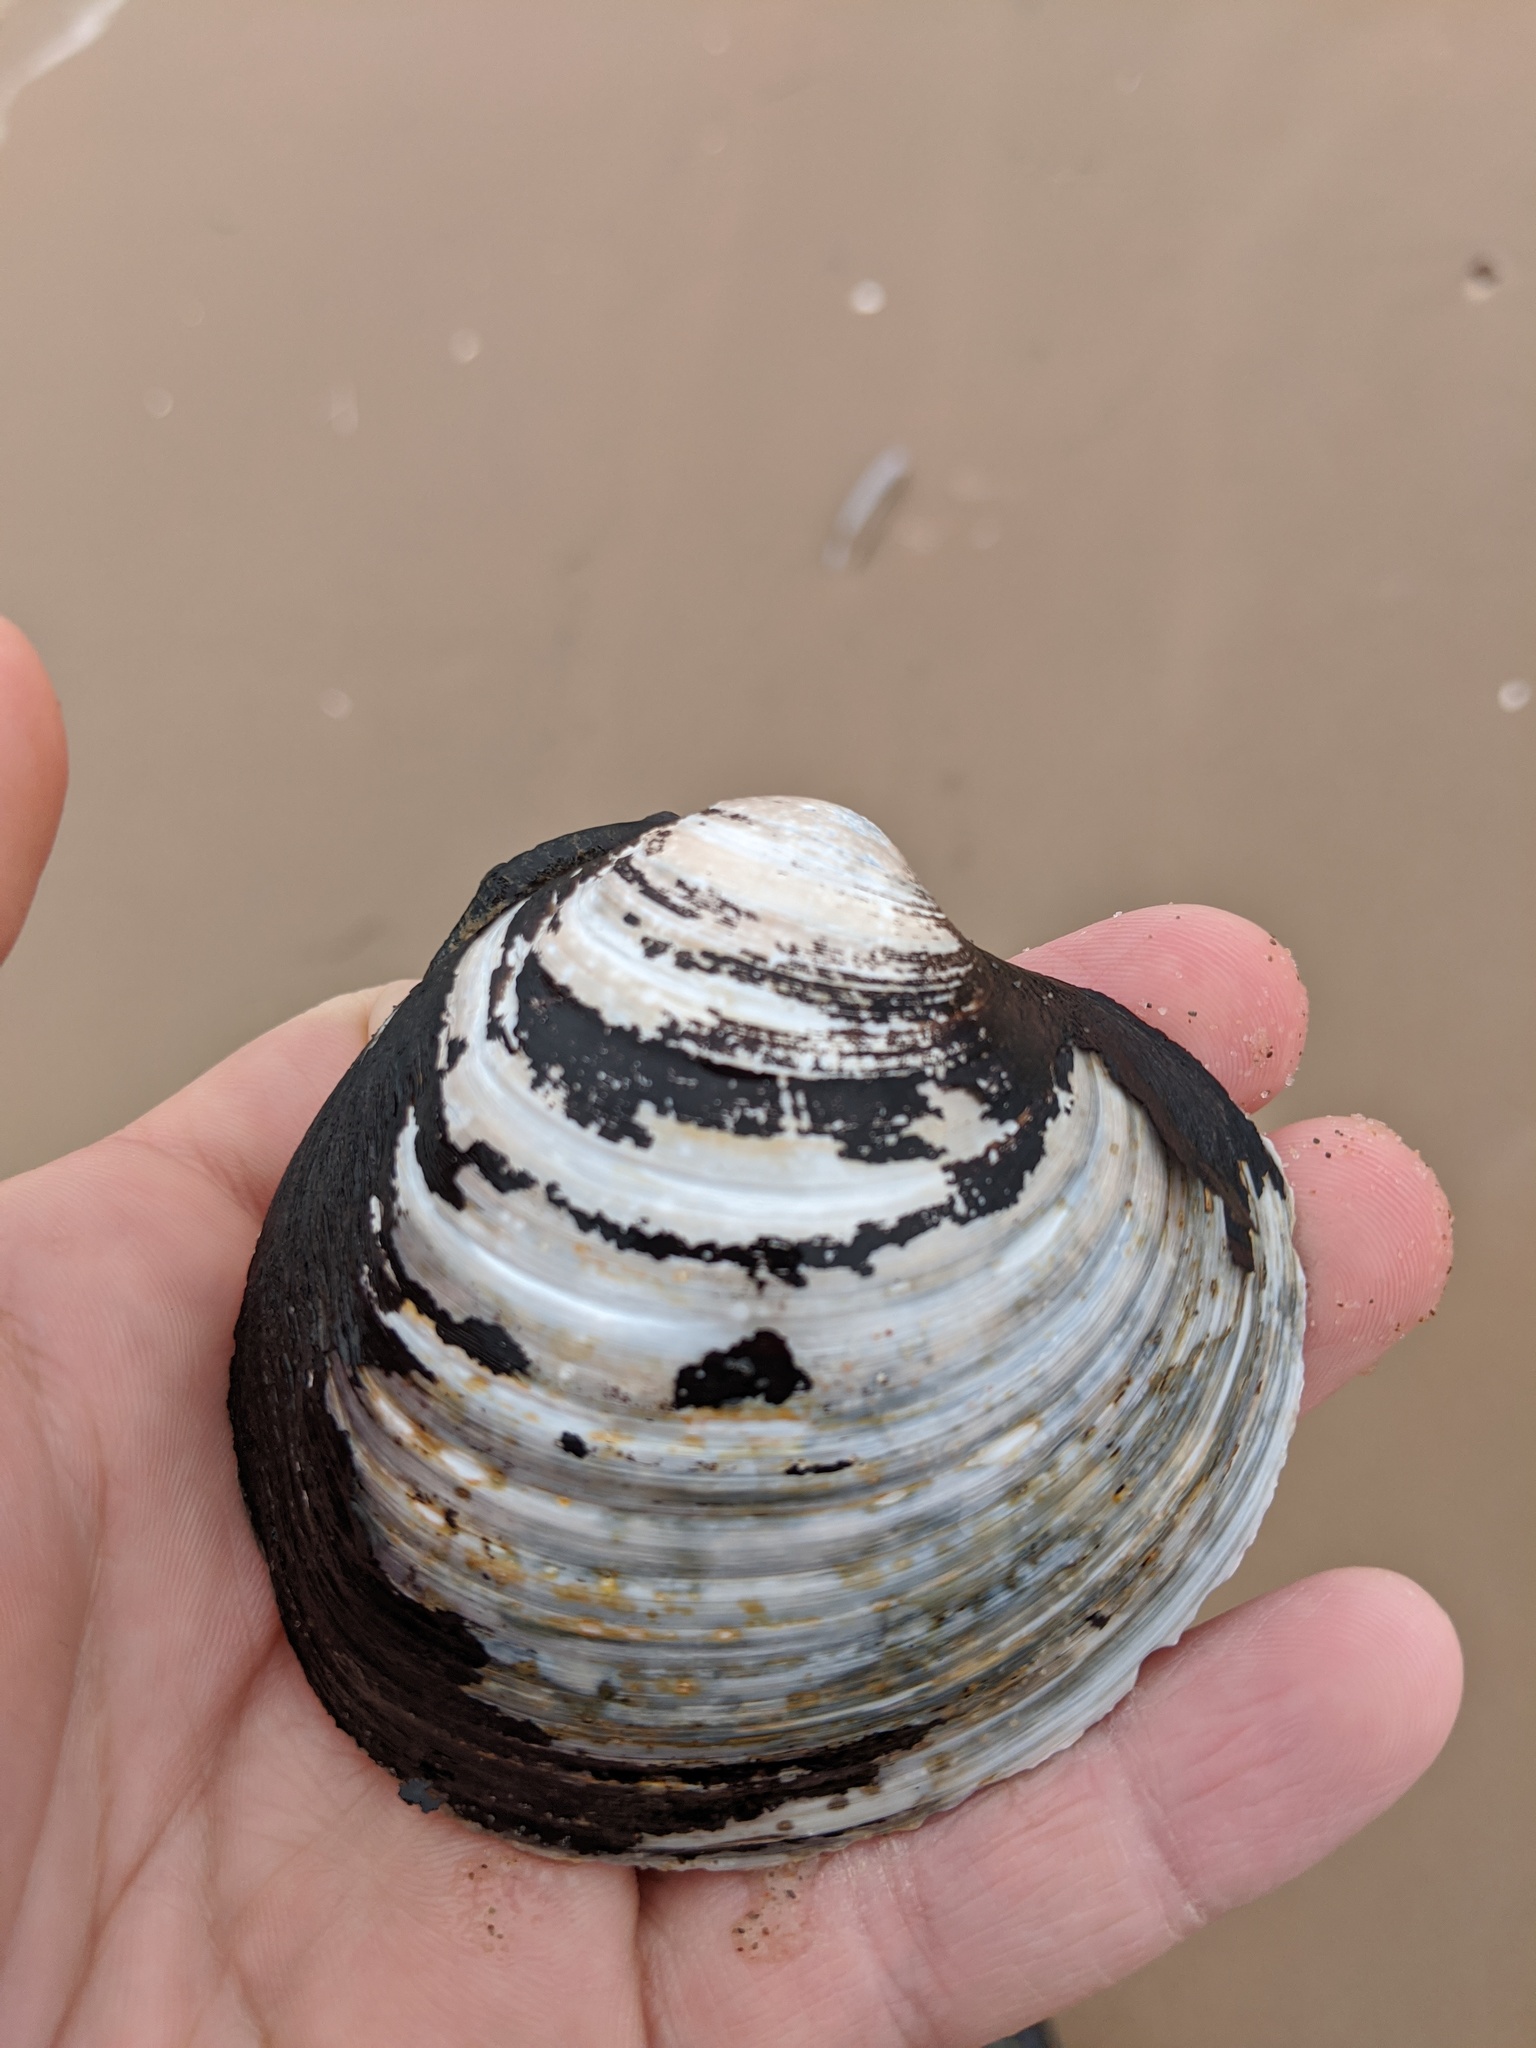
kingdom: Animalia
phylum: Mollusca
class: Bivalvia
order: Venerida
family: Arcticidae
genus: Arctica
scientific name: Arctica islandica
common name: Icelandic cyprine
